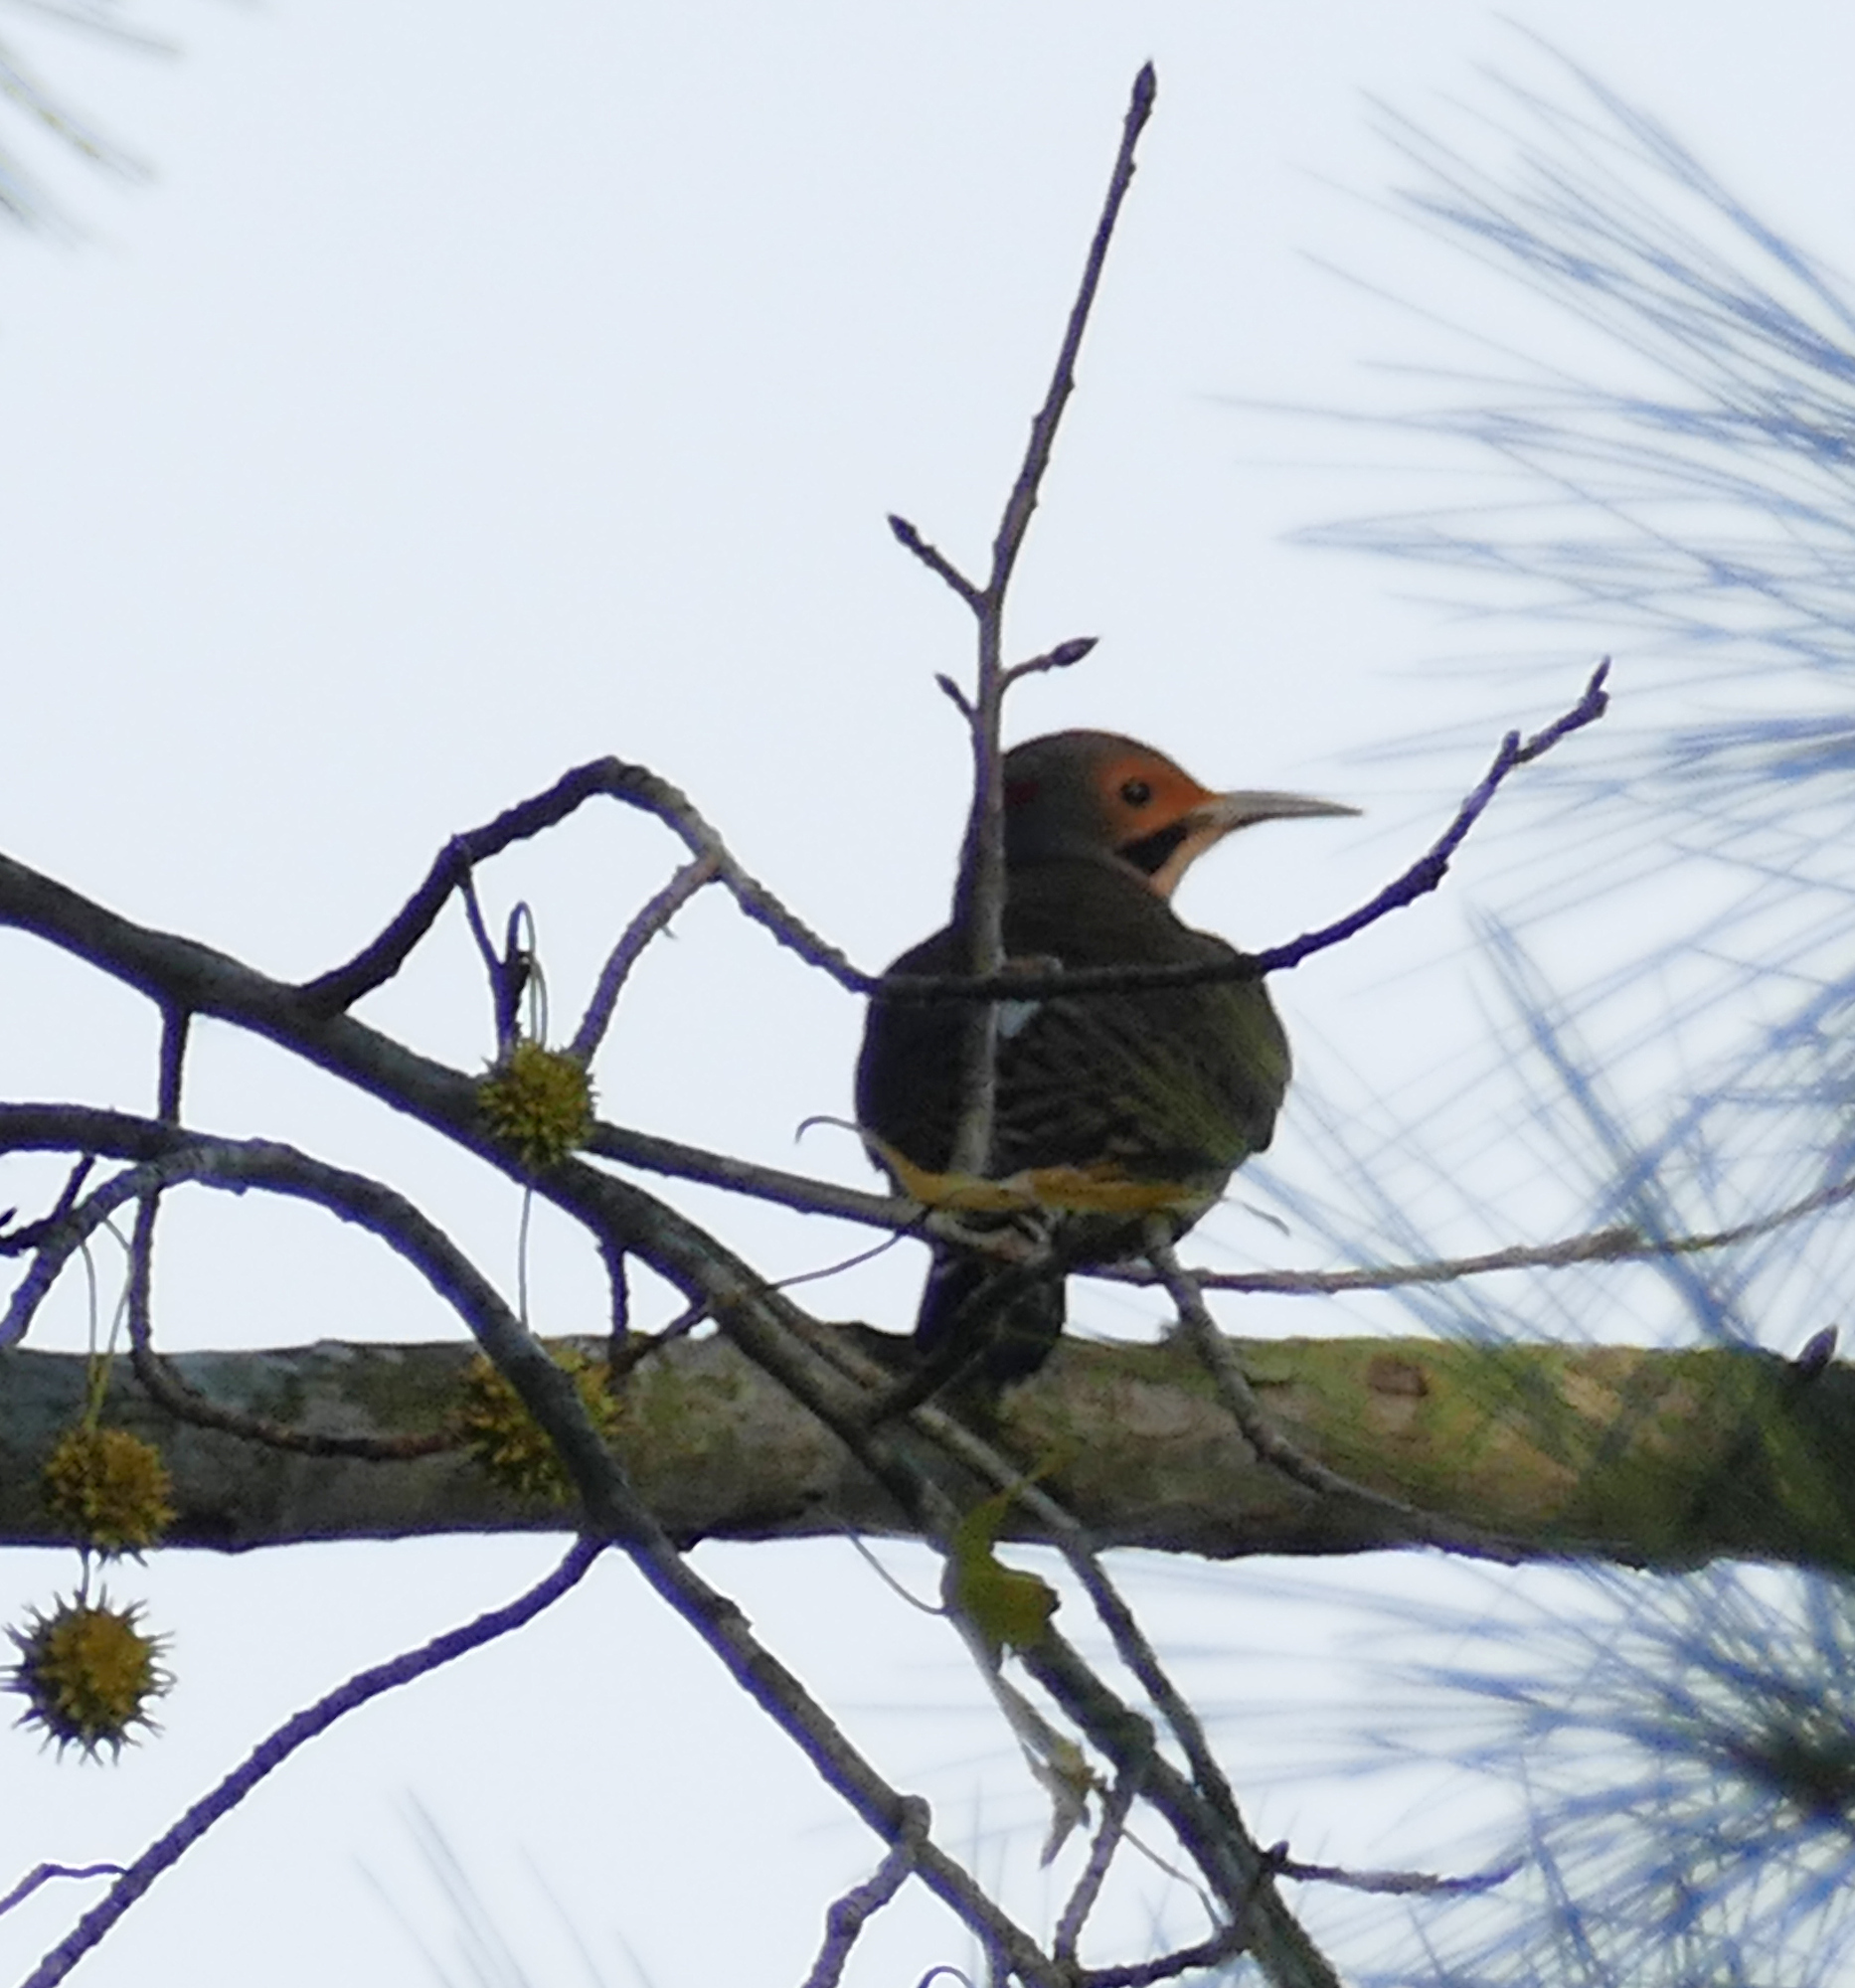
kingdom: Animalia
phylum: Chordata
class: Aves
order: Piciformes
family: Picidae
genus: Colaptes
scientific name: Colaptes auratus
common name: Northern flicker
